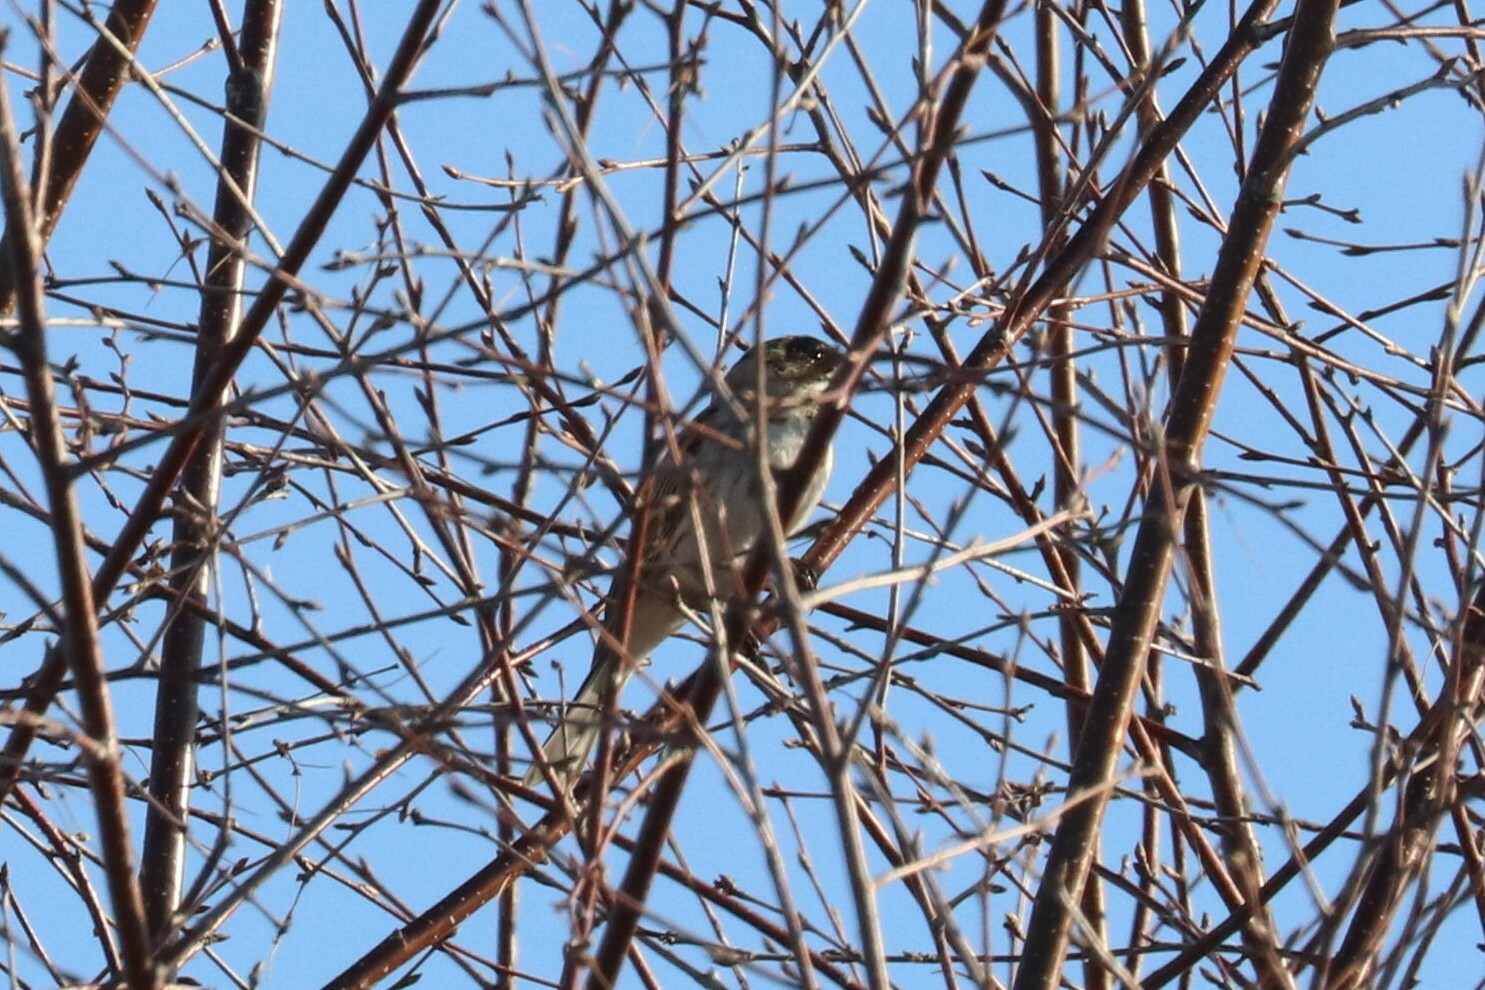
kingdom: Animalia
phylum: Chordata
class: Aves
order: Passeriformes
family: Emberizidae
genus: Emberiza
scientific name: Emberiza schoeniclus
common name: Reed bunting
